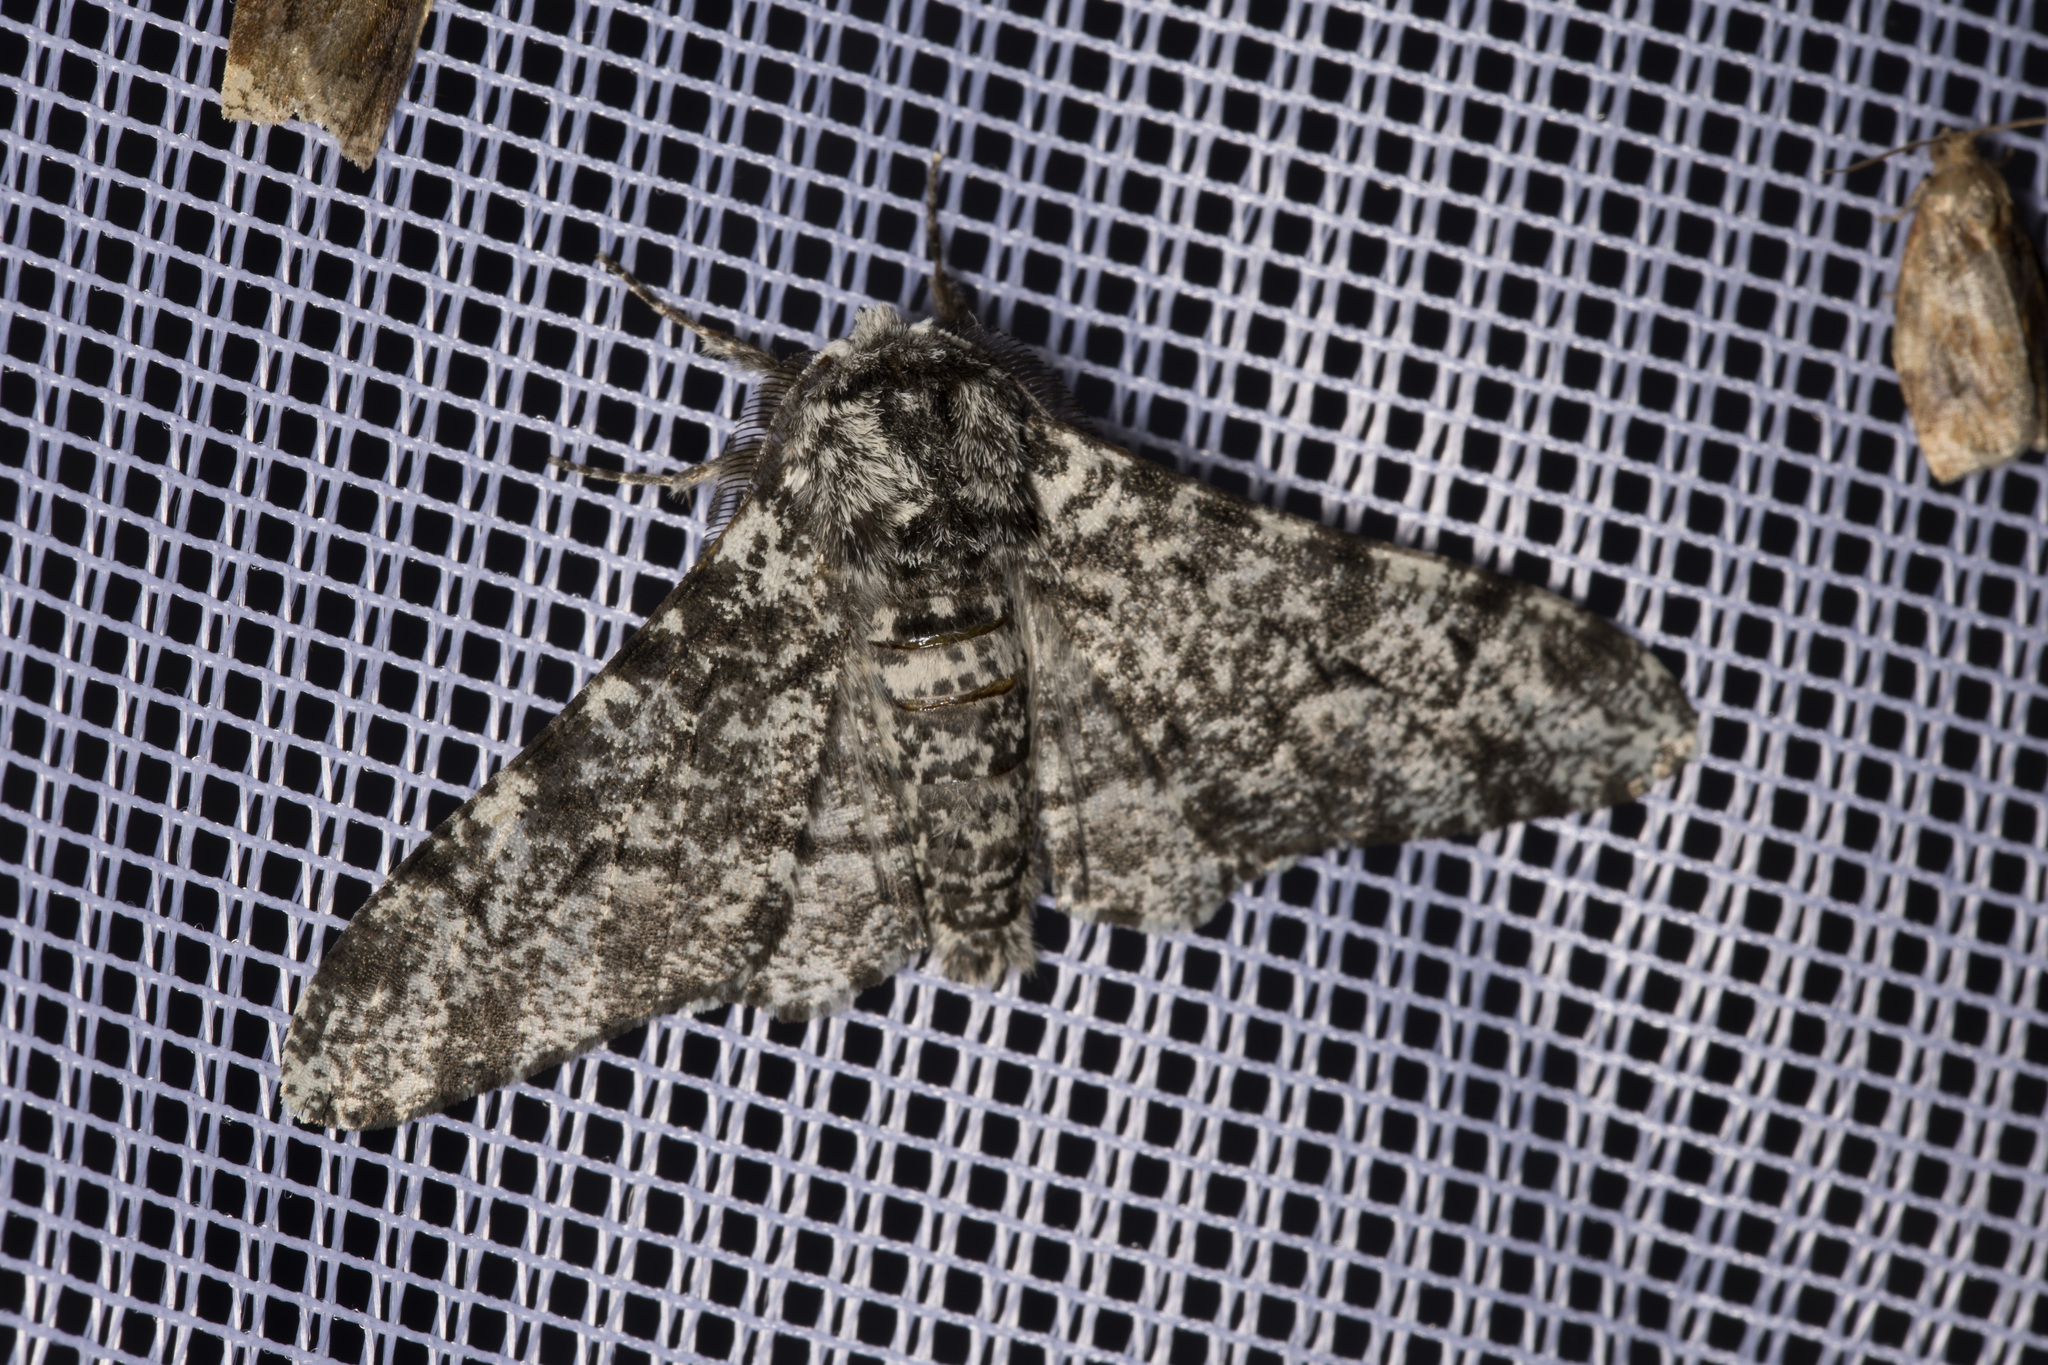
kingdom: Animalia
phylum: Arthropoda
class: Insecta
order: Lepidoptera
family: Geometridae
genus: Biston
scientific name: Biston betularia
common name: Peppered moth
